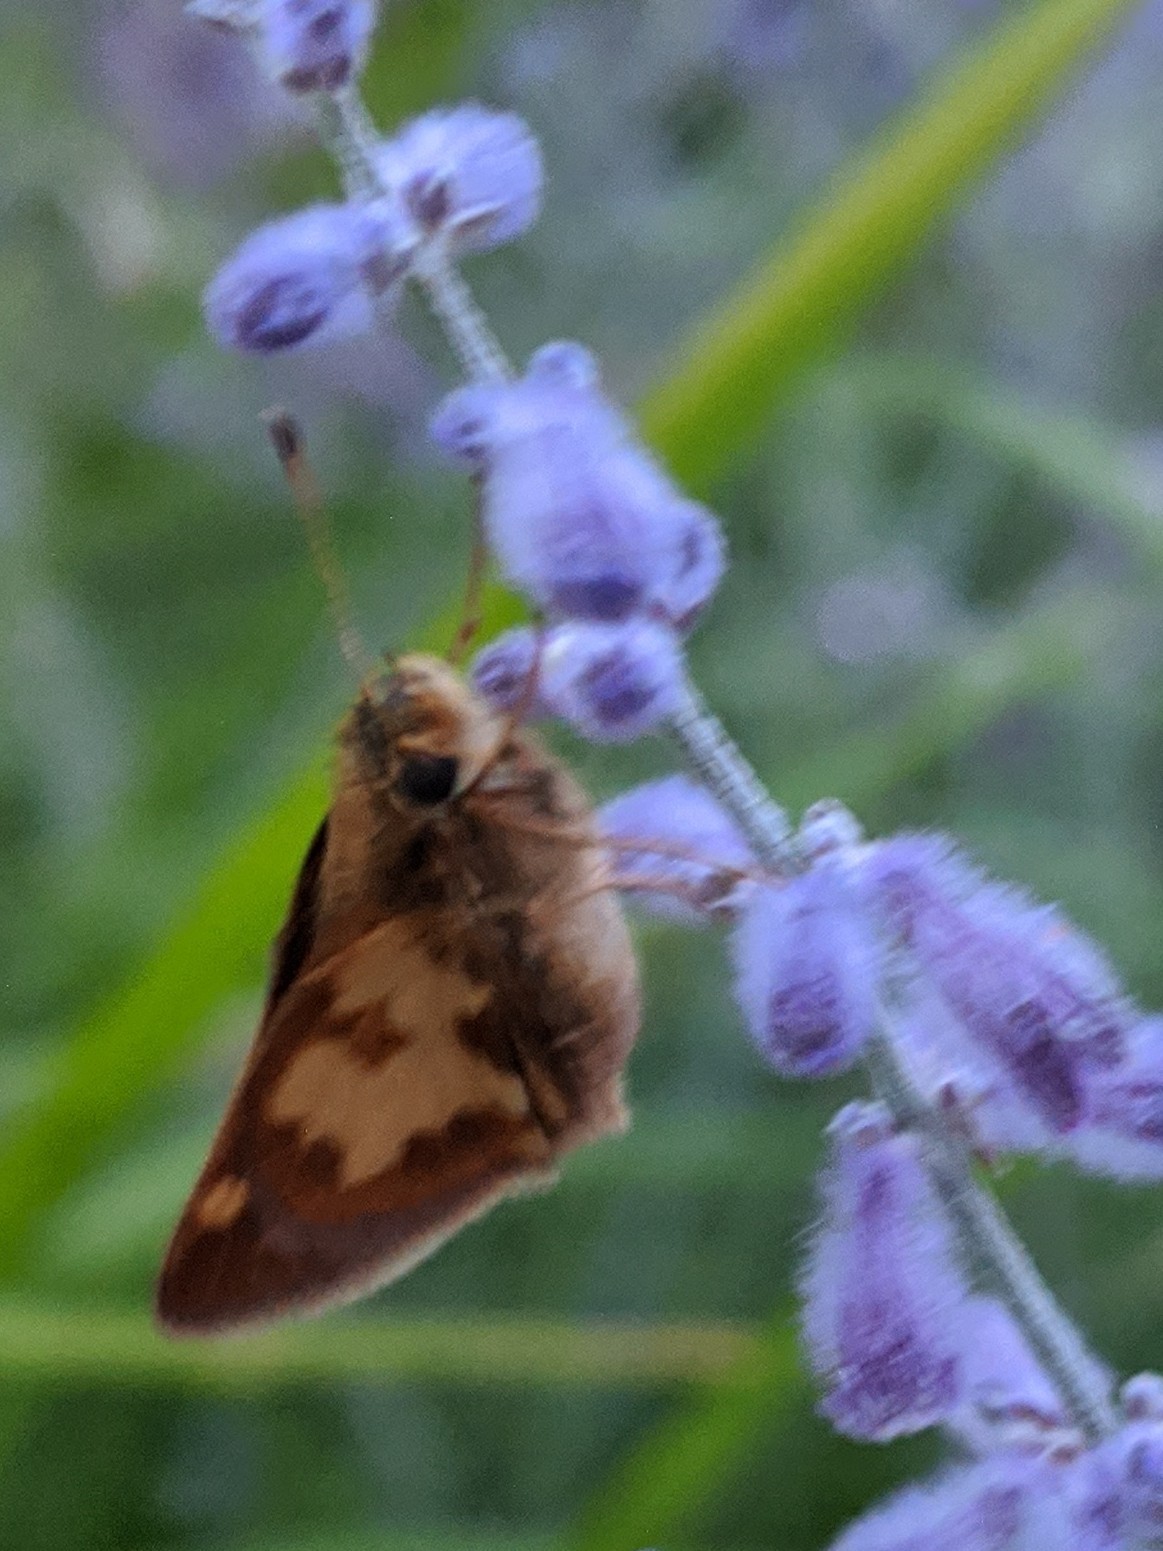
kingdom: Animalia
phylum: Arthropoda
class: Insecta
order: Lepidoptera
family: Hesperiidae
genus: Polites
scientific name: Polites coras
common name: Peck's skipper
